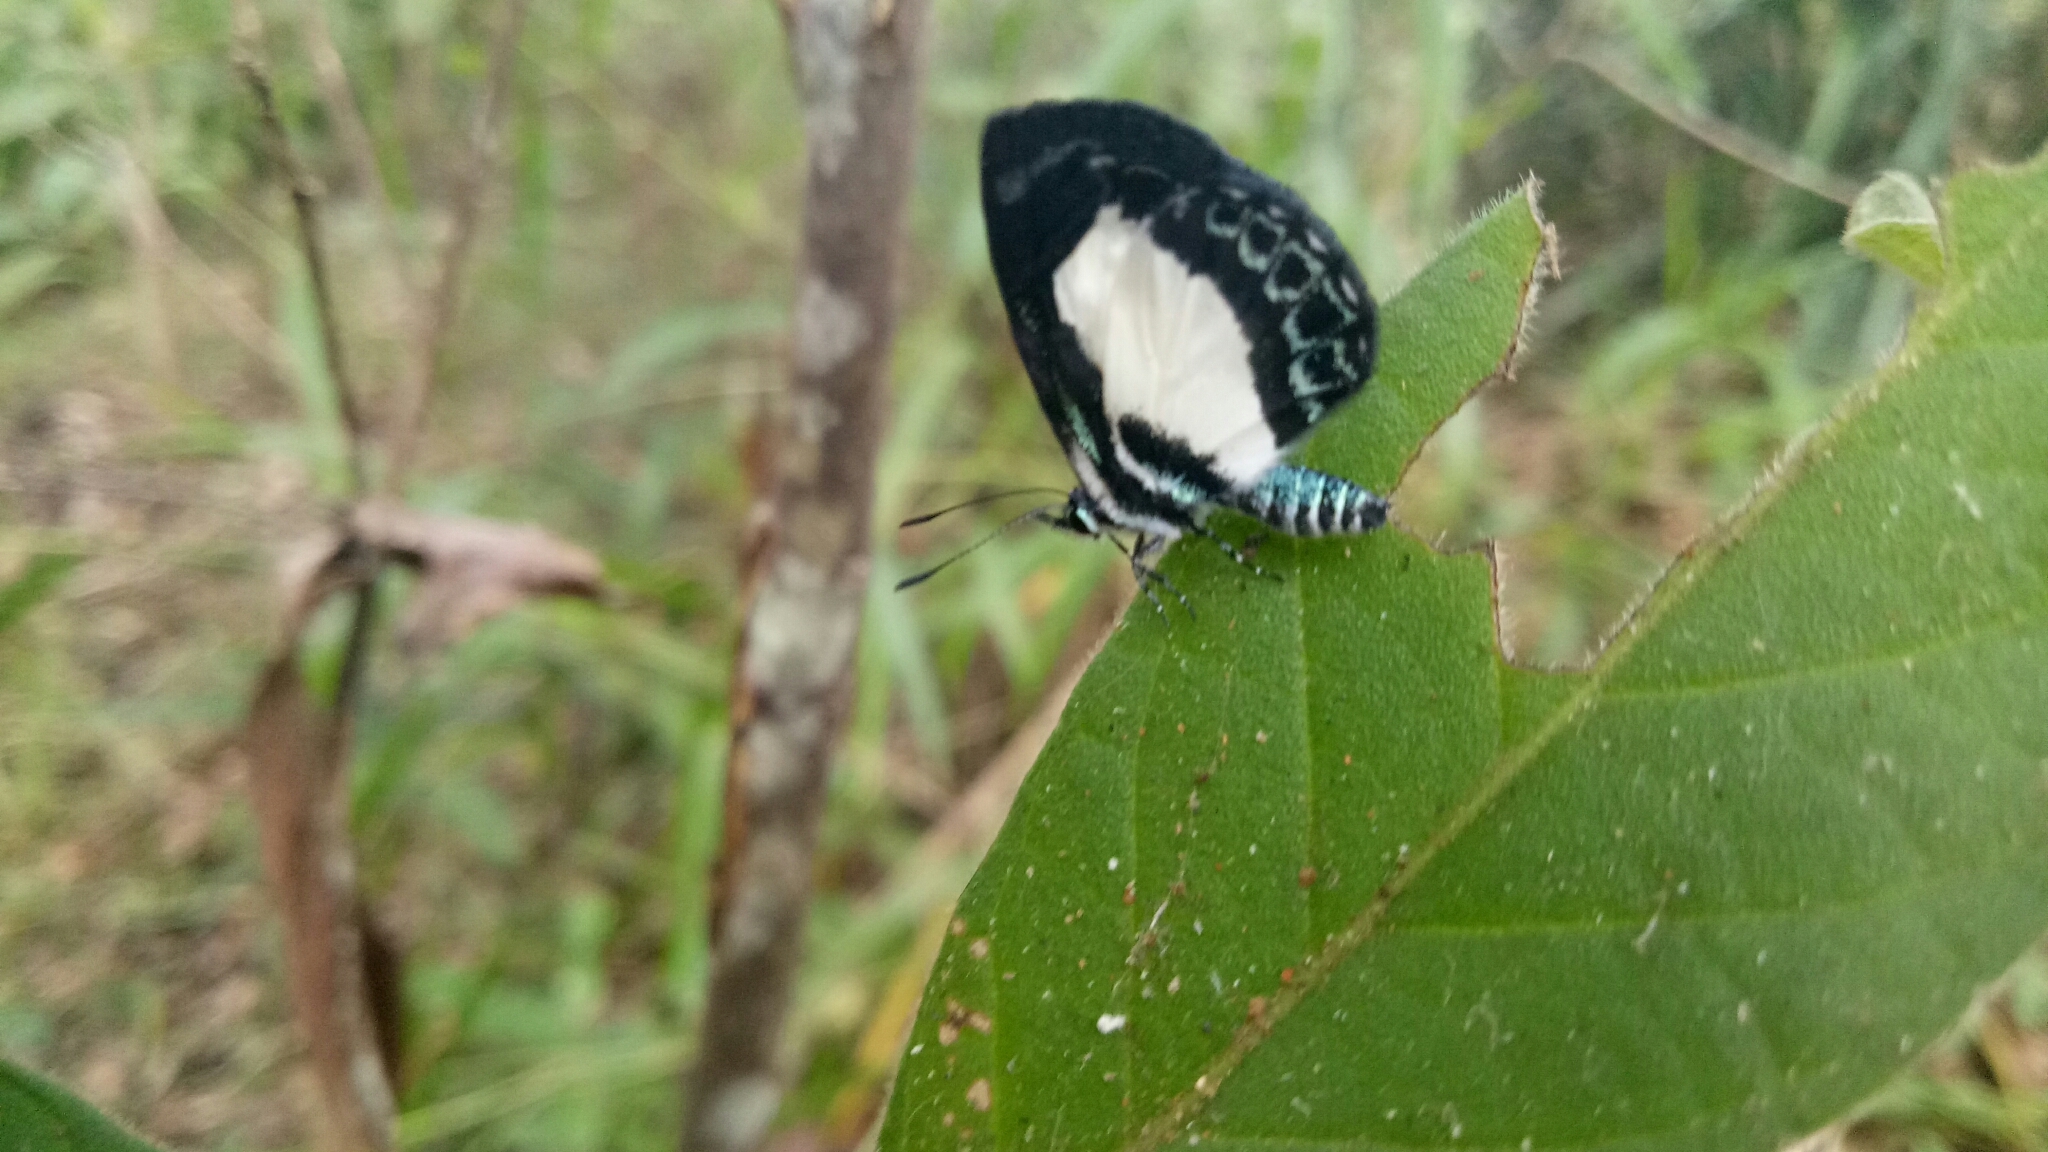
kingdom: Animalia
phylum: Arthropoda
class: Insecta
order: Lepidoptera
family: Lycaenidae
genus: Psychonotis
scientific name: Psychonotis caelius
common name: Small green banded blue
